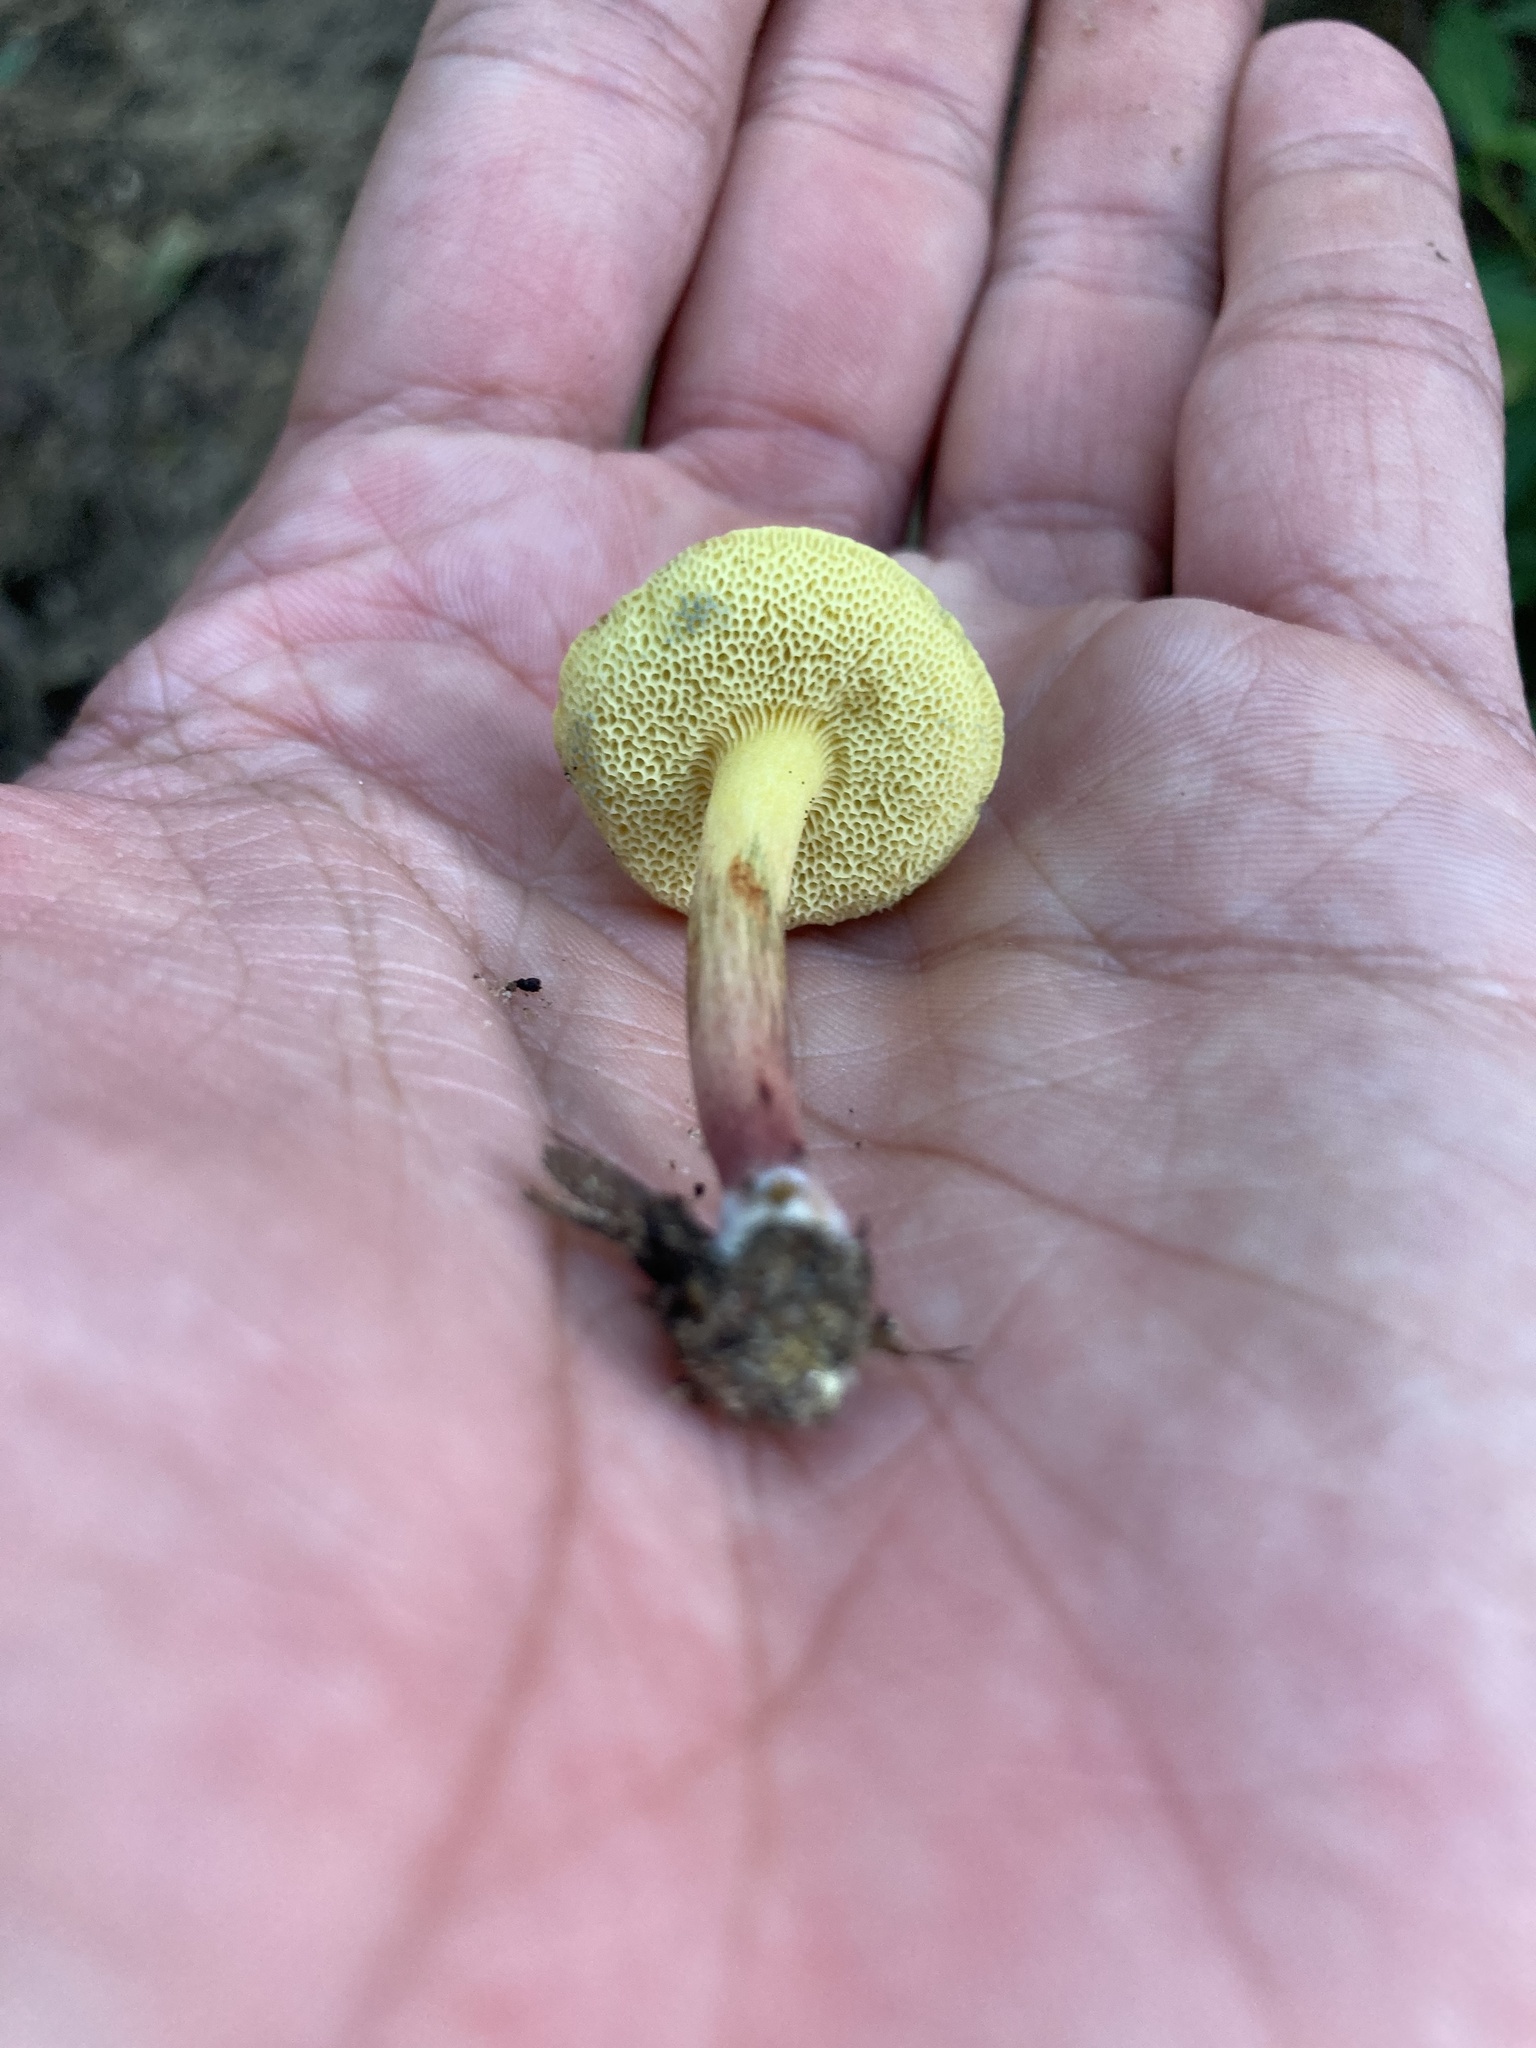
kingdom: Fungi
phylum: Basidiomycota
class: Agaricomycetes
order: Boletales
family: Boletaceae
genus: Hortiboletus
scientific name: Hortiboletus rubellus
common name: Ruby bolete
